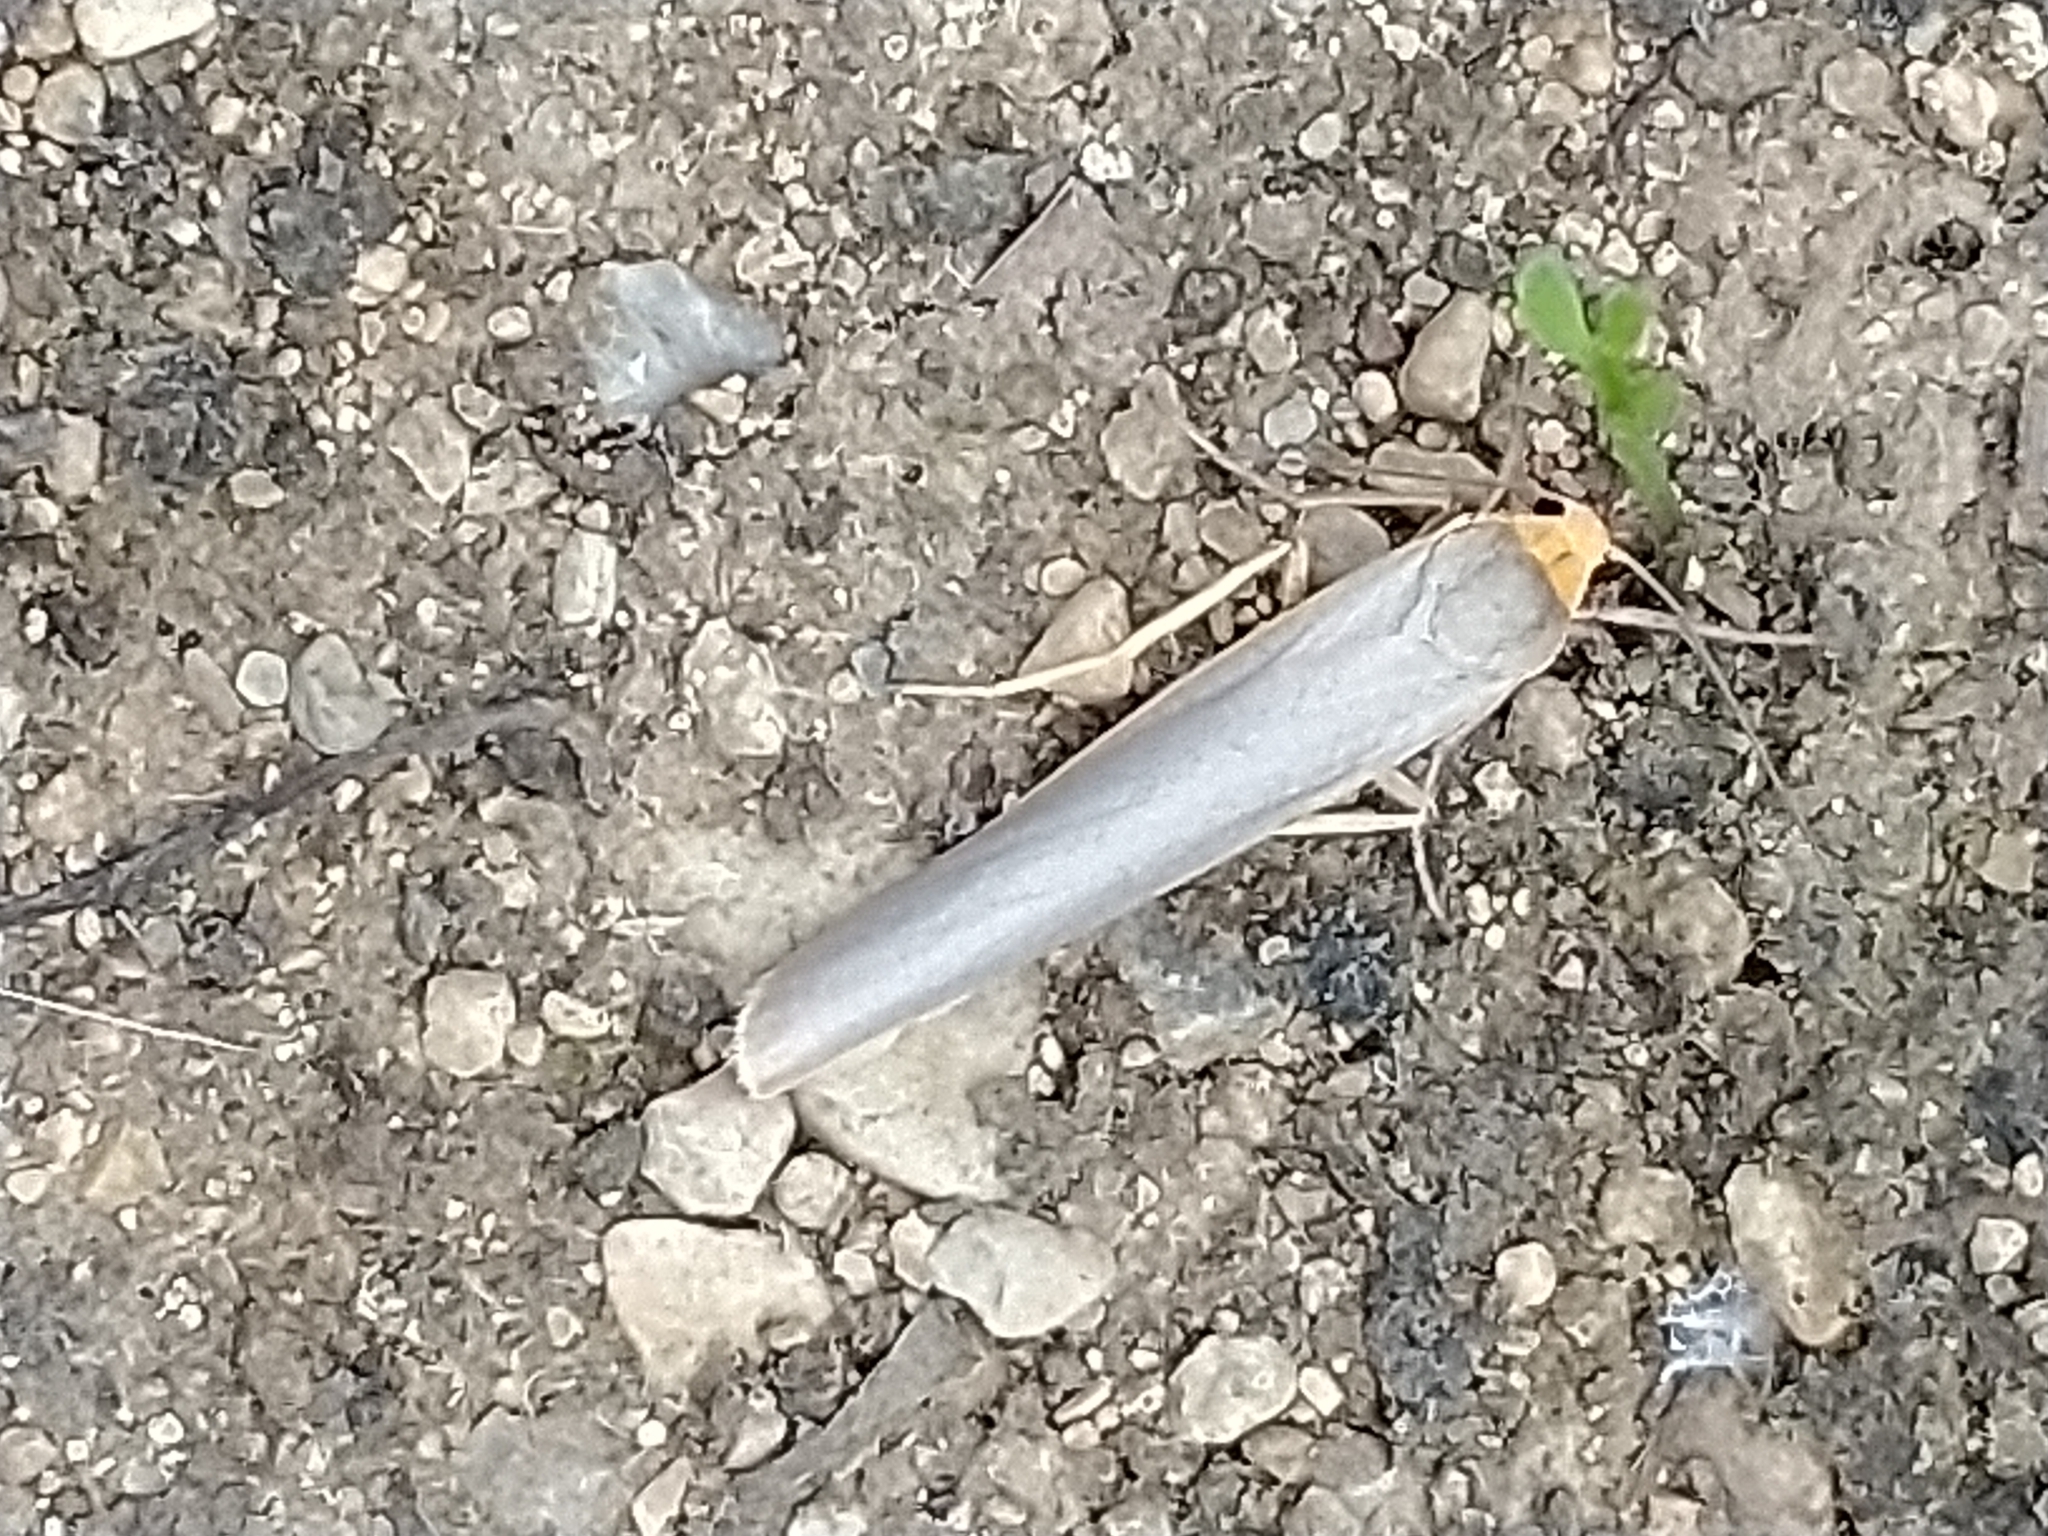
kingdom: Animalia
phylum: Arthropoda
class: Insecta
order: Lepidoptera
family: Erebidae
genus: Manulea
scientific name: Manulea complana
